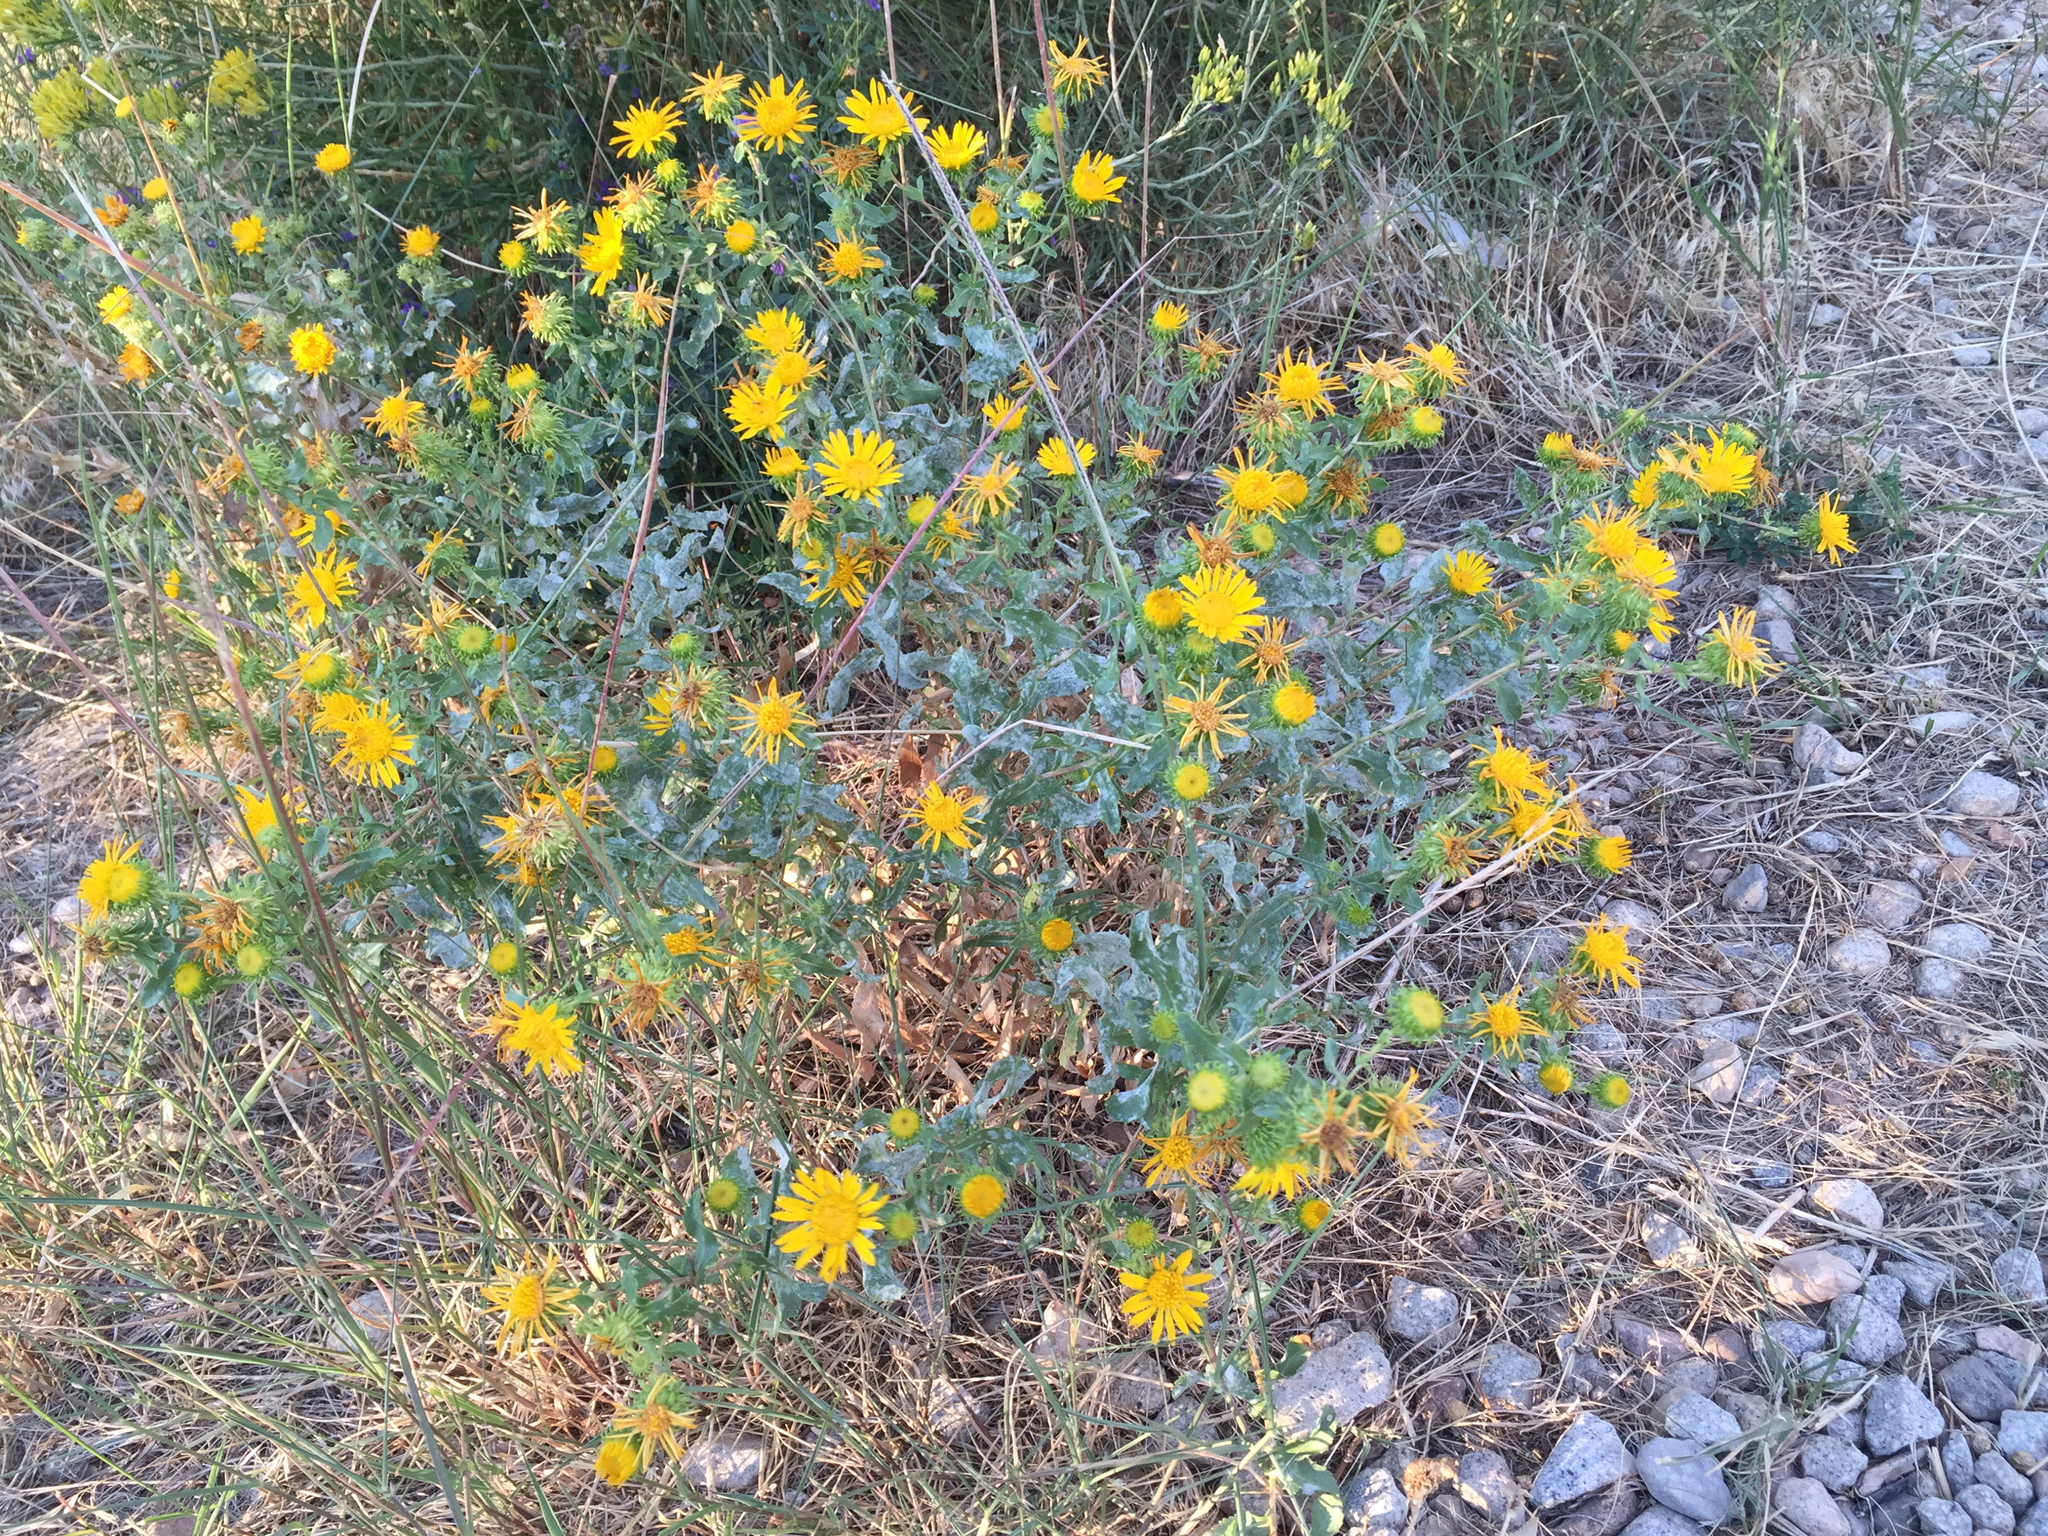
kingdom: Plantae
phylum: Tracheophyta
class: Magnoliopsida
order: Asterales
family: Asteraceae
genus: Grindelia
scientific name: Grindelia squarrosa
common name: Curly-cup gumweed
